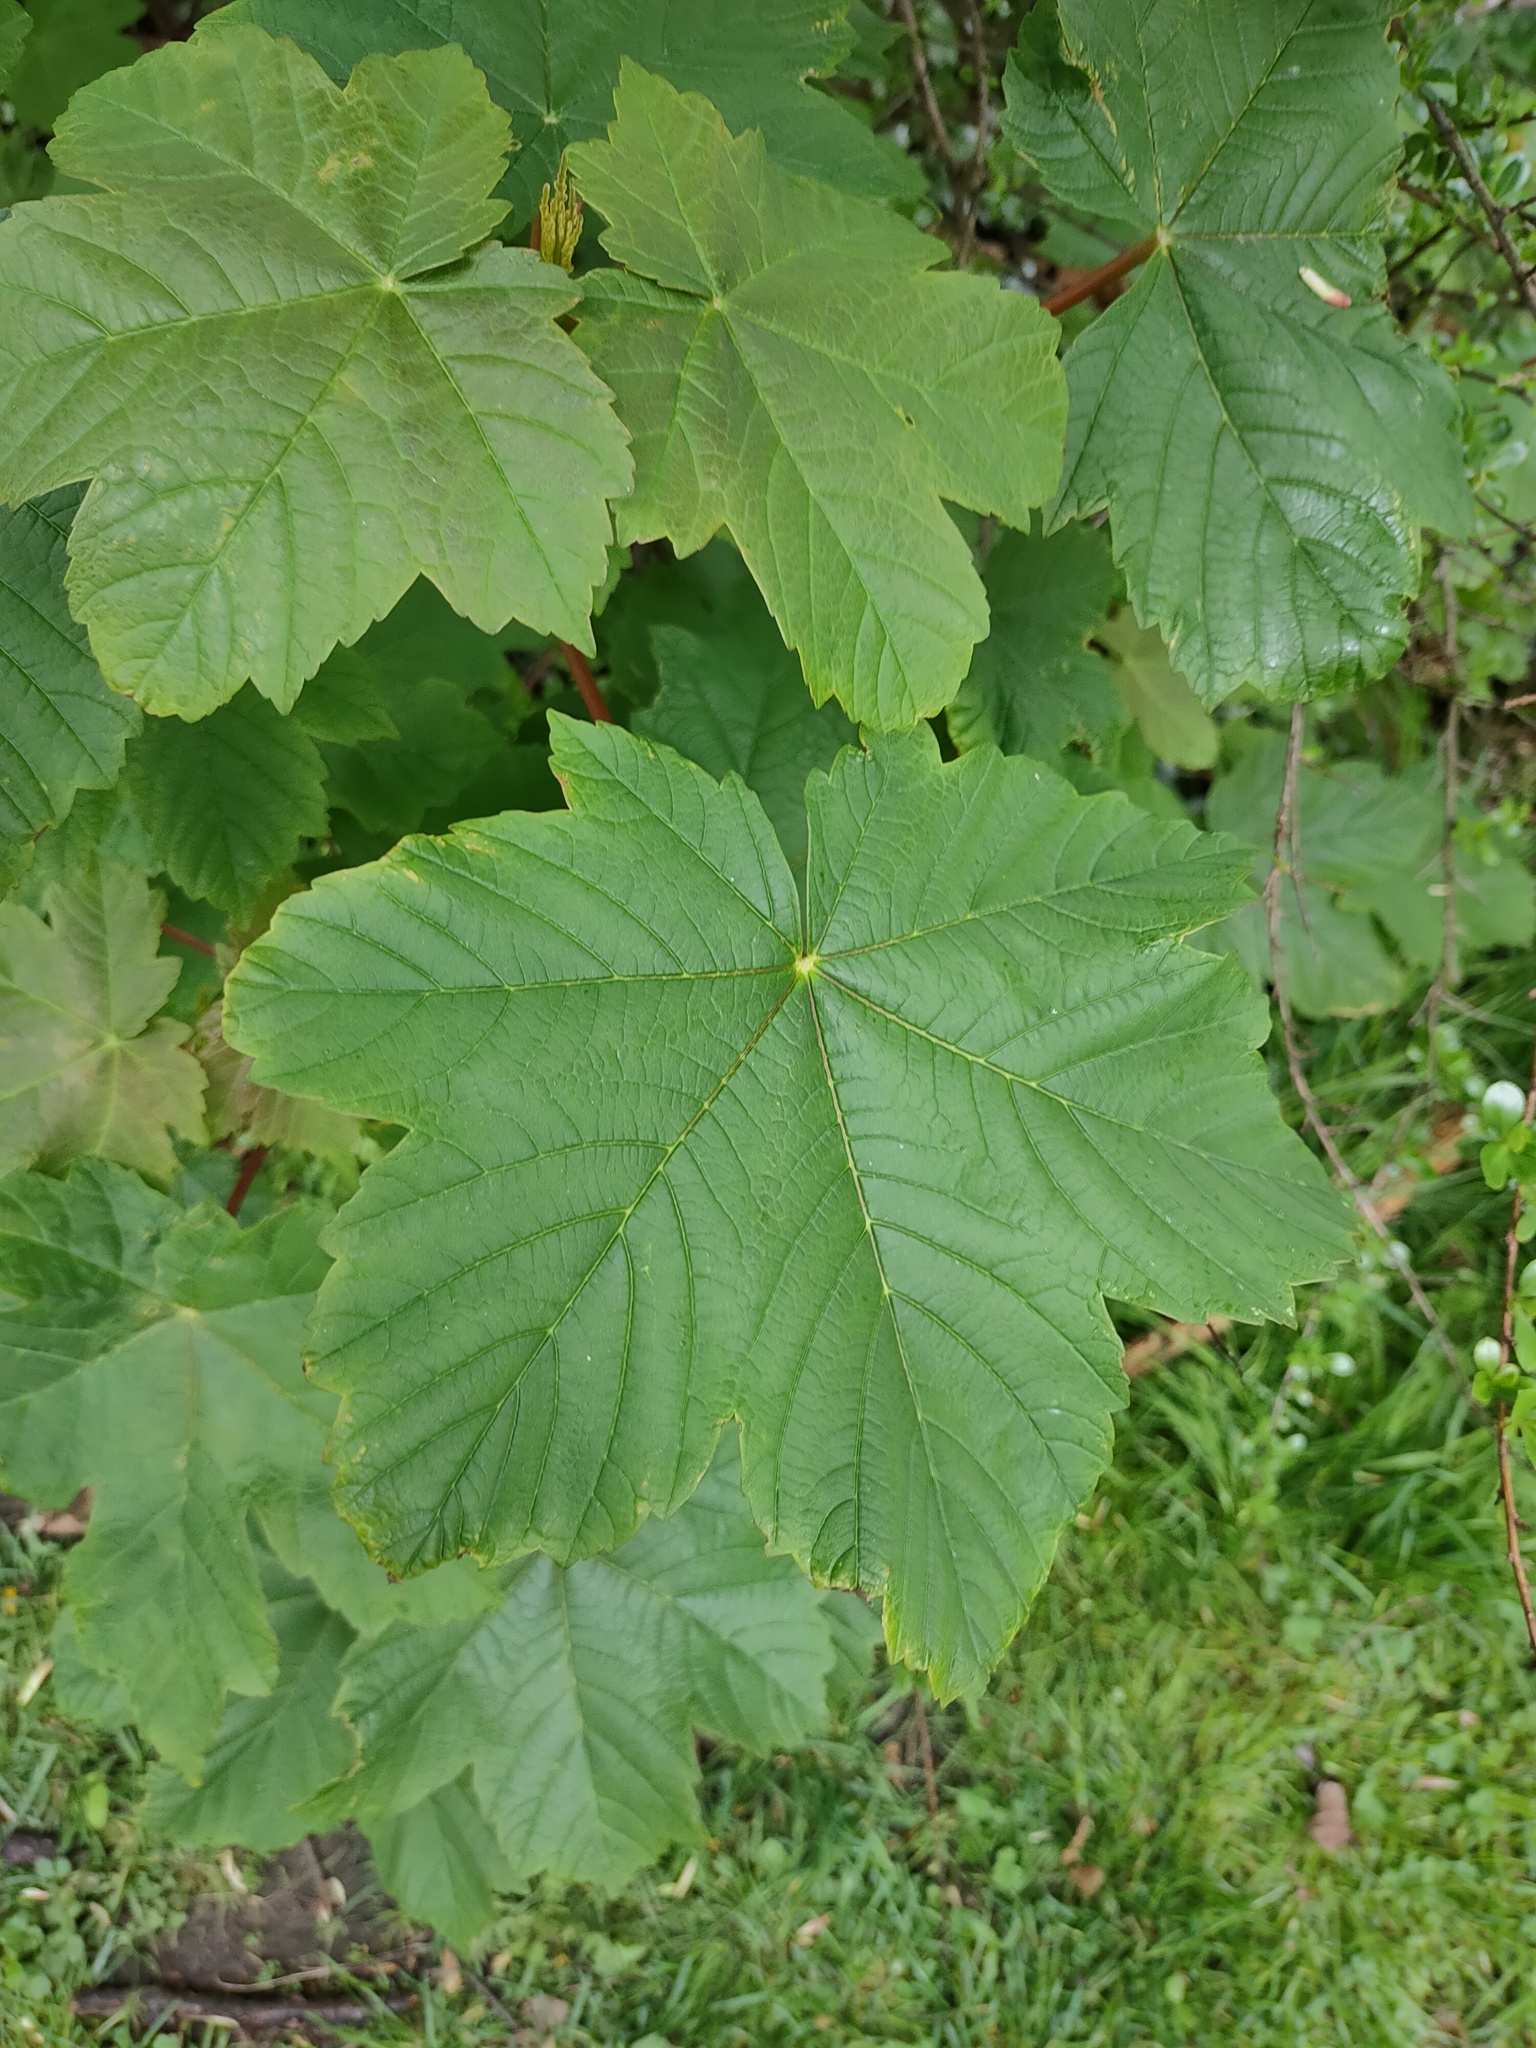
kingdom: Plantae
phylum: Tracheophyta
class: Magnoliopsida
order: Sapindales
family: Sapindaceae
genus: Acer
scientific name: Acer pseudoplatanus
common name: Sycamore
